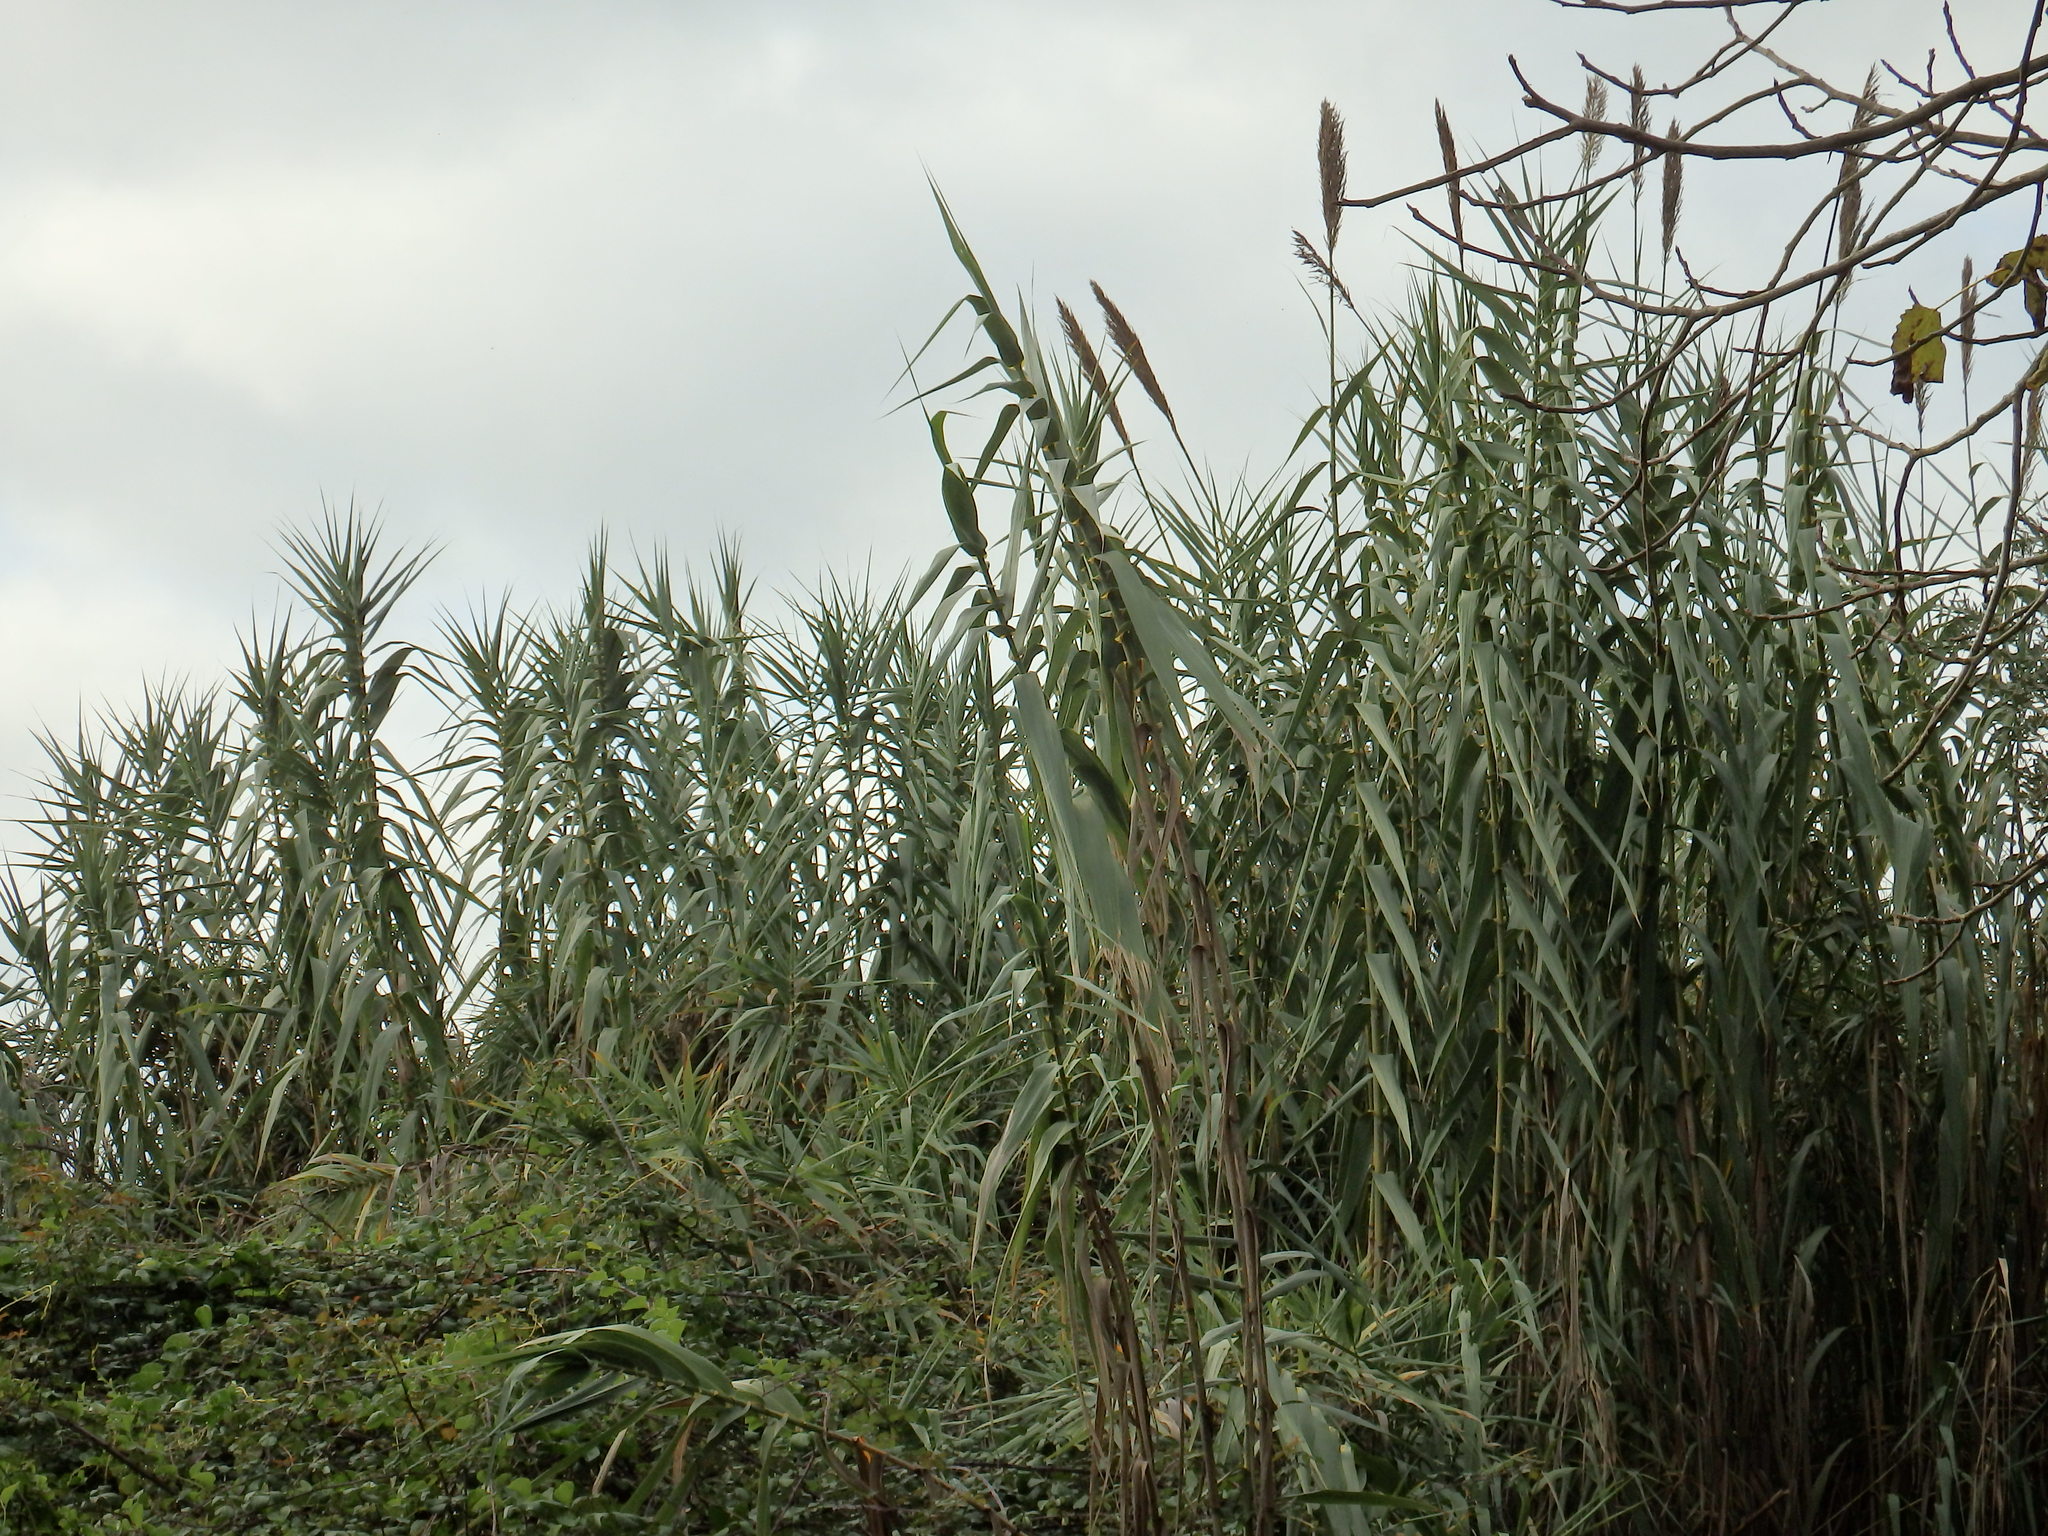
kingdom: Plantae
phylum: Tracheophyta
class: Liliopsida
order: Poales
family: Poaceae
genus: Arundo
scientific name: Arundo donax
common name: Giant reed
